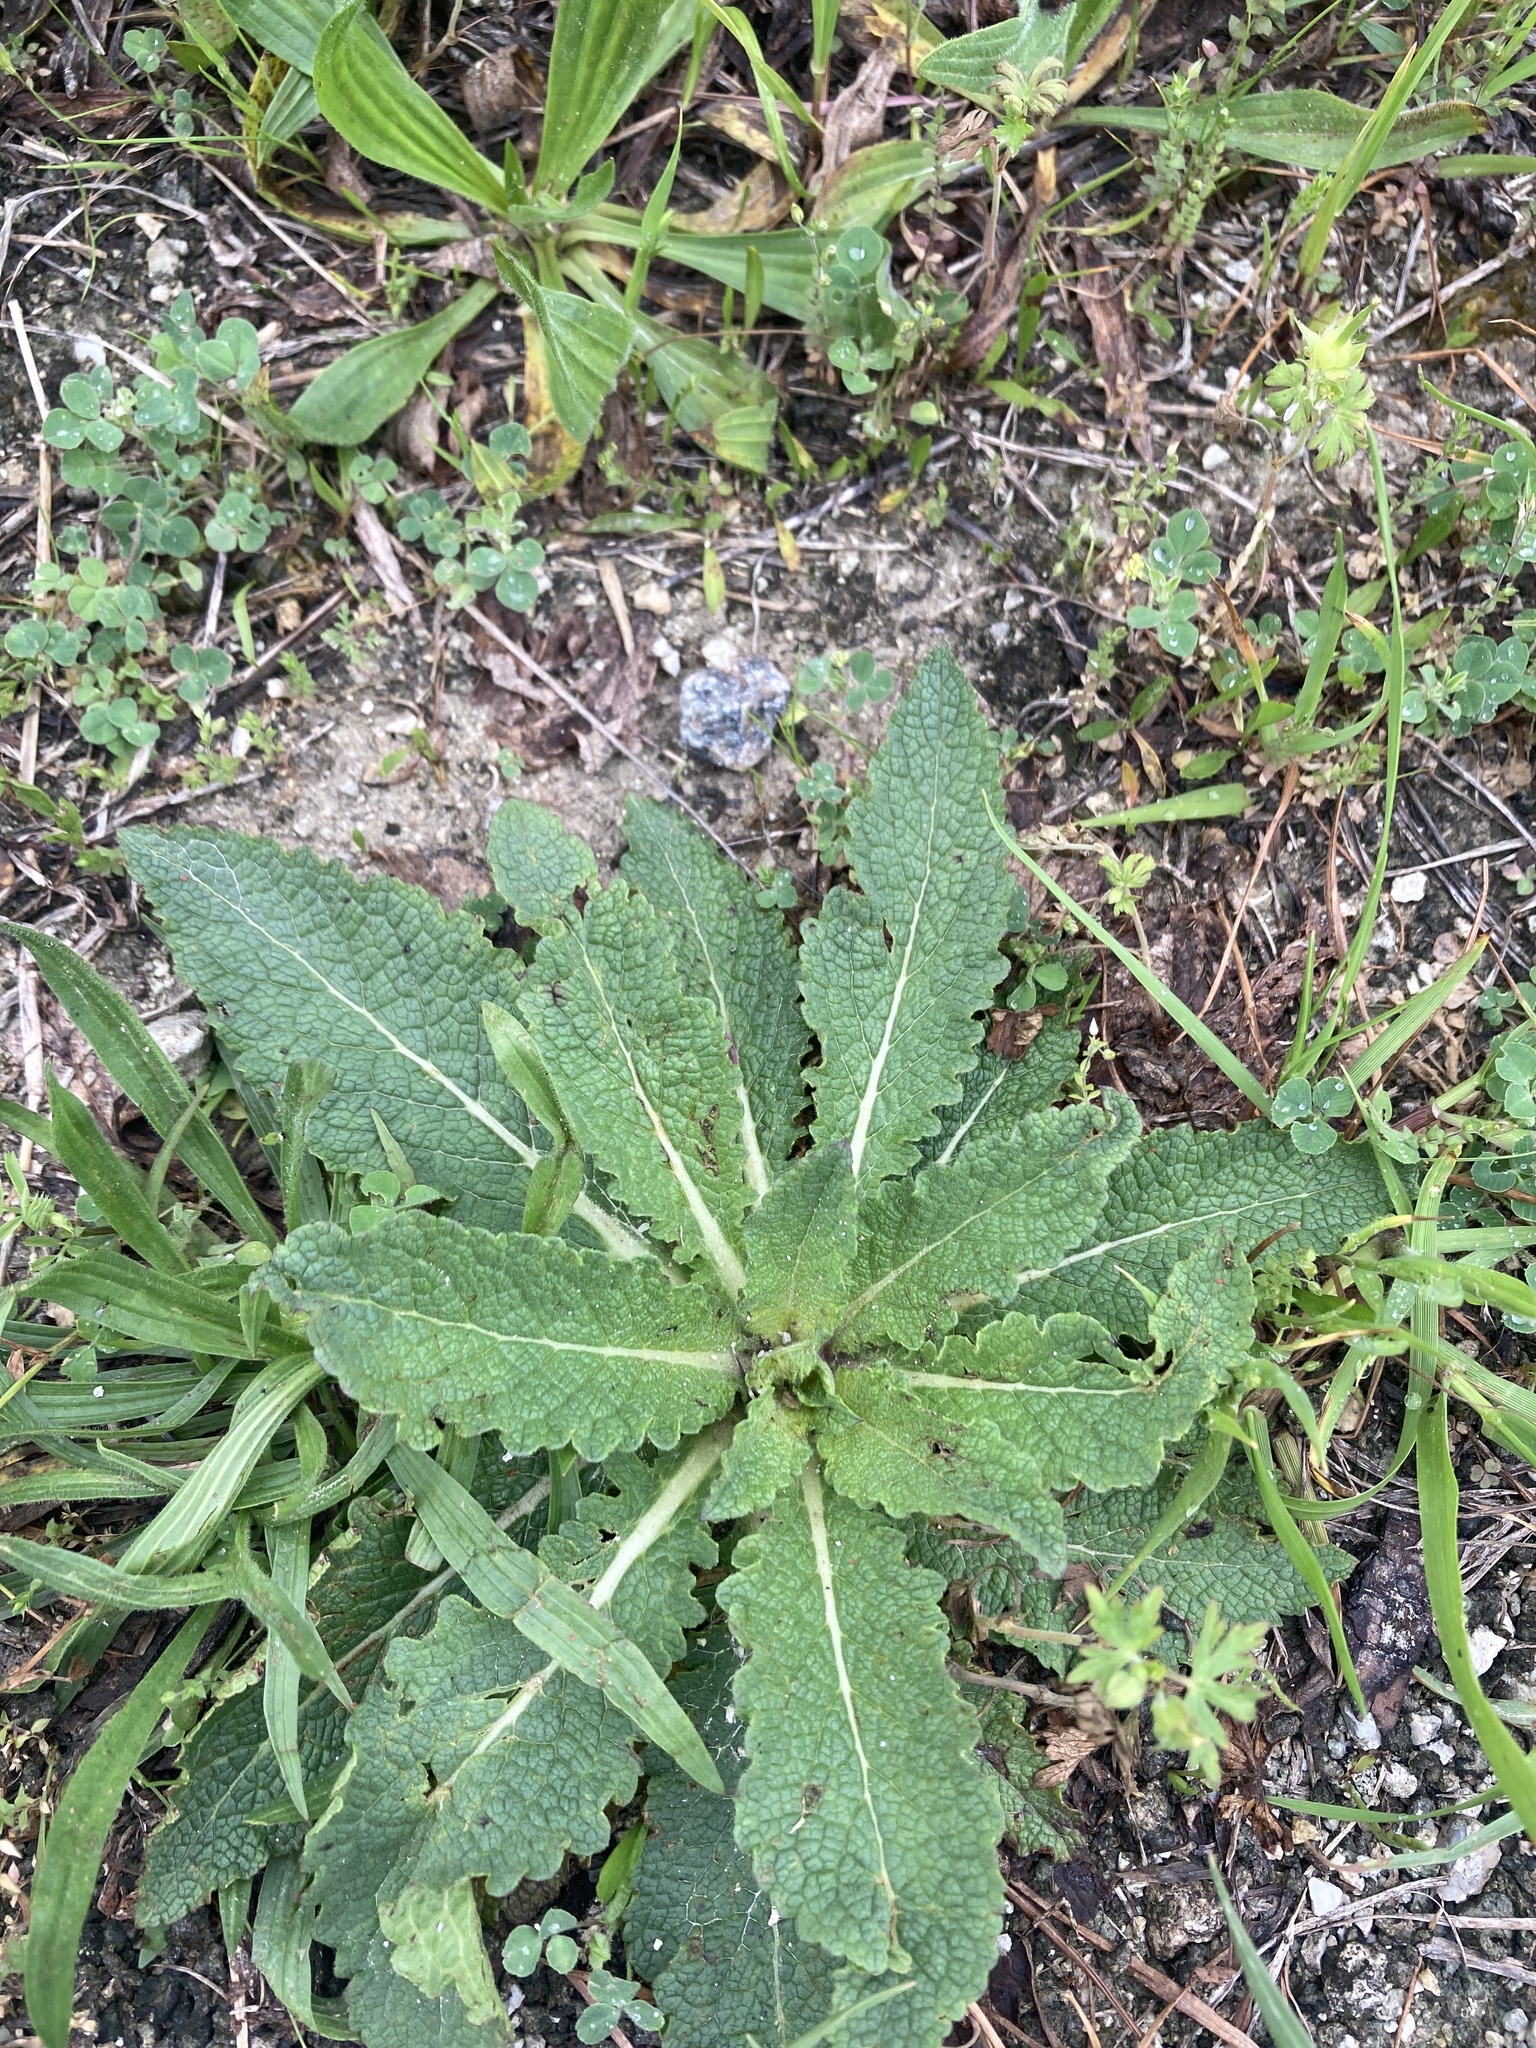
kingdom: Plantae
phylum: Tracheophyta
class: Magnoliopsida
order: Lamiales
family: Scrophulariaceae
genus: Verbascum
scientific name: Verbascum virgatum
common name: Twiggy mullein
